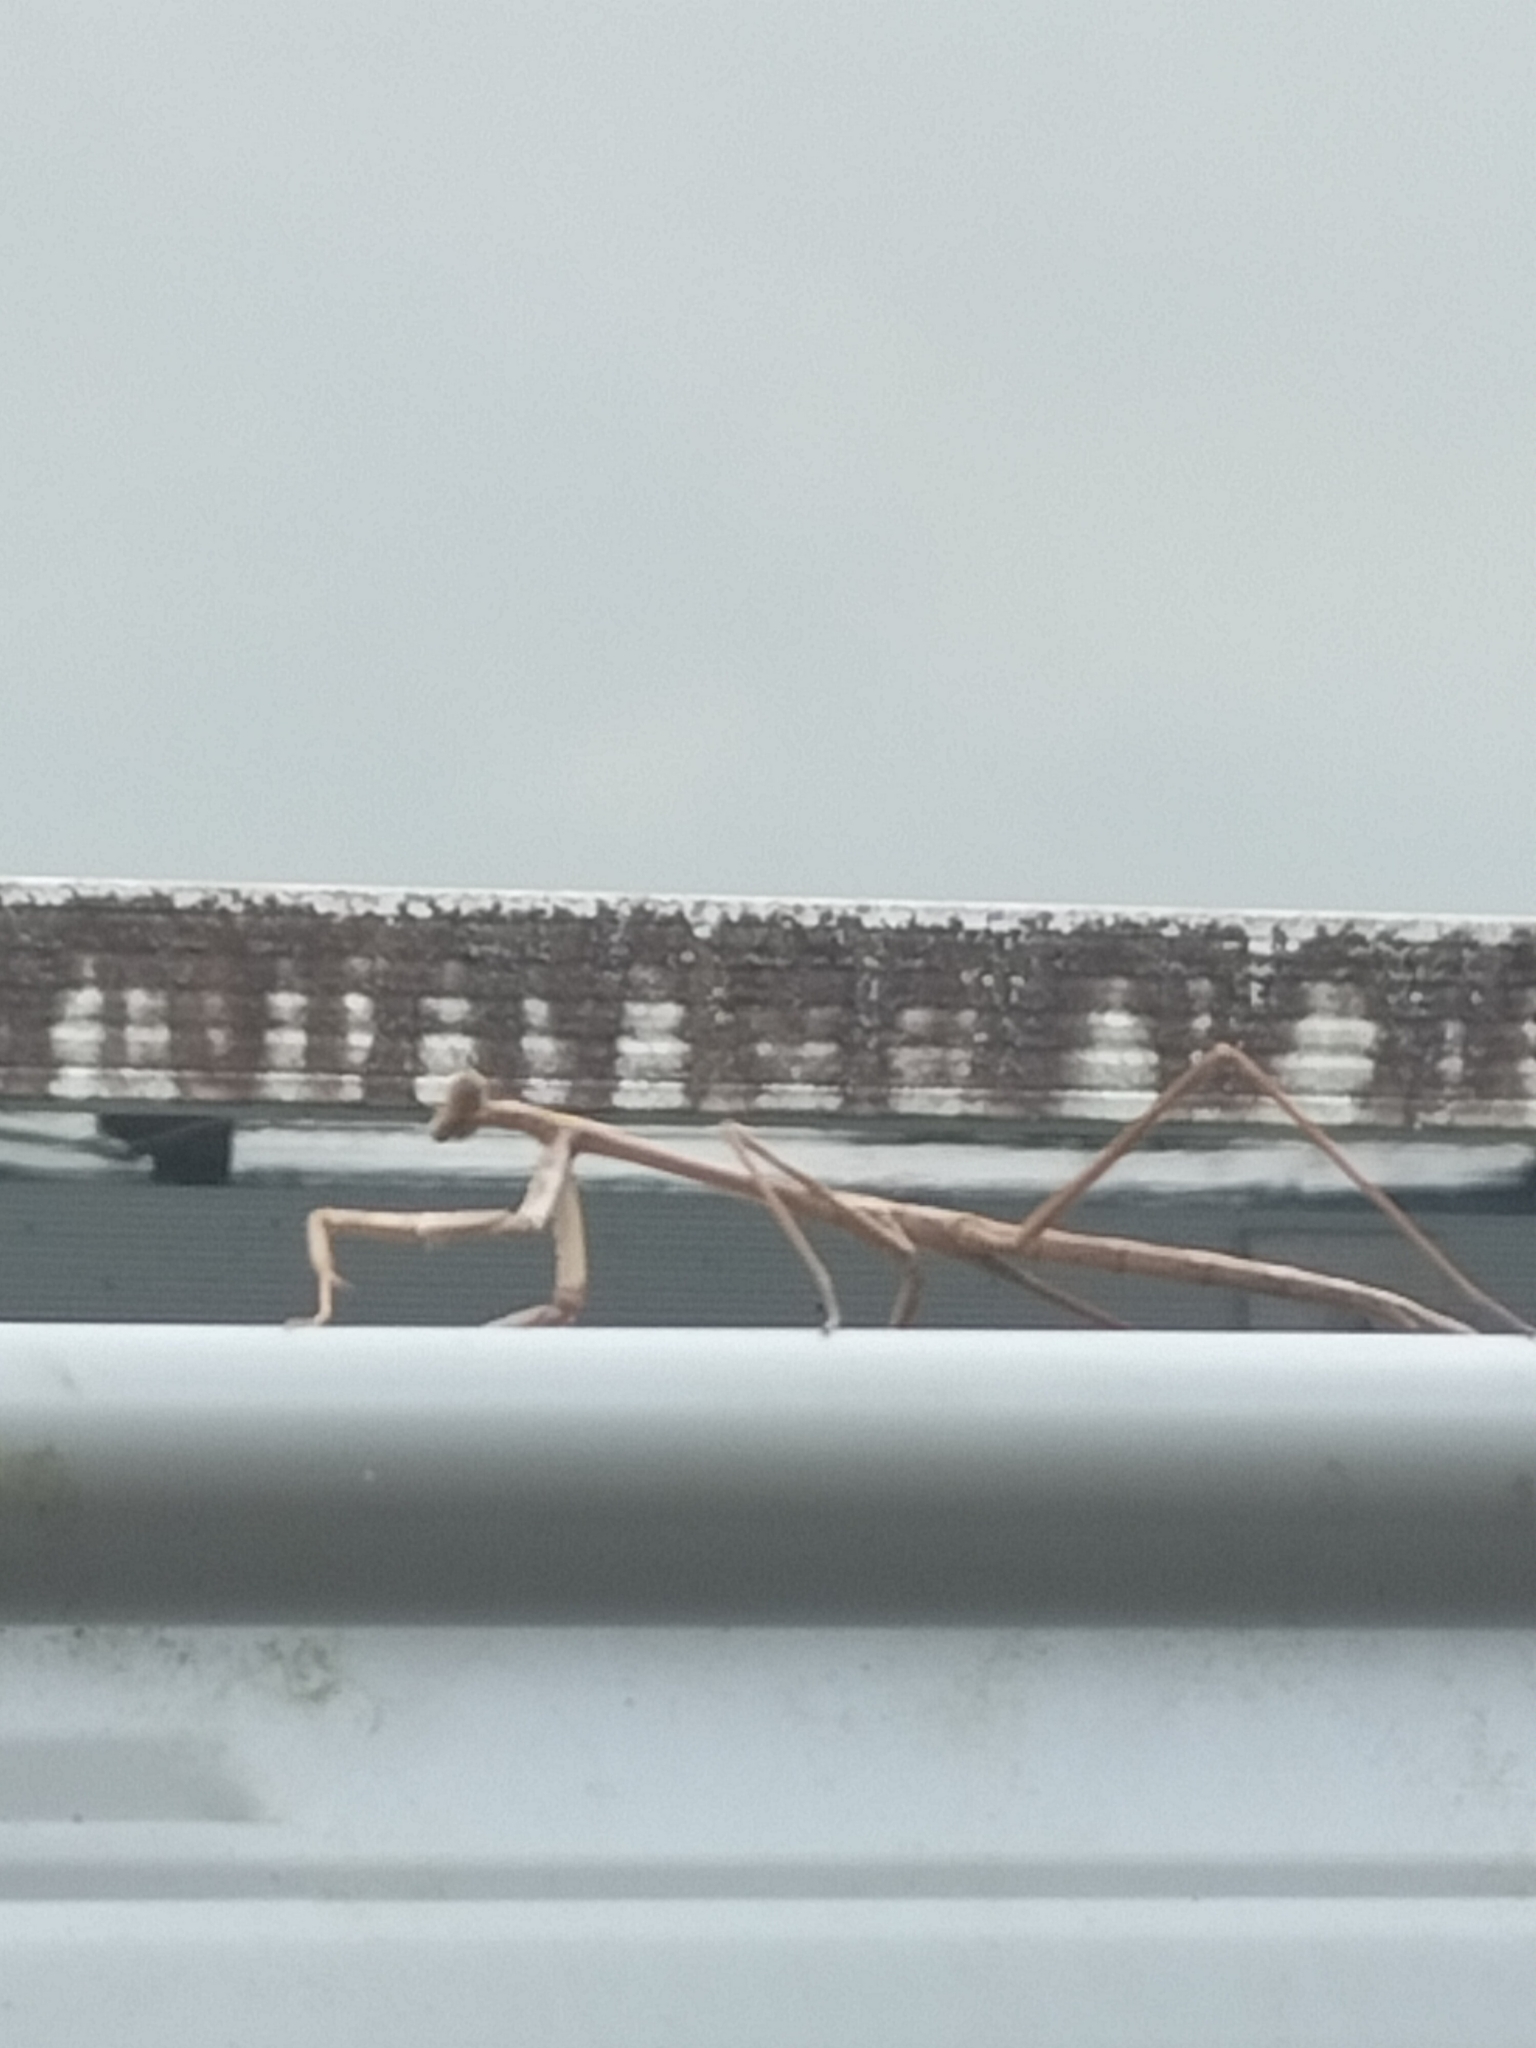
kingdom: Animalia
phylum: Arthropoda
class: Insecta
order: Mantodea
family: Mantidae
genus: Archimantis
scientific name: Archimantis latistyla
